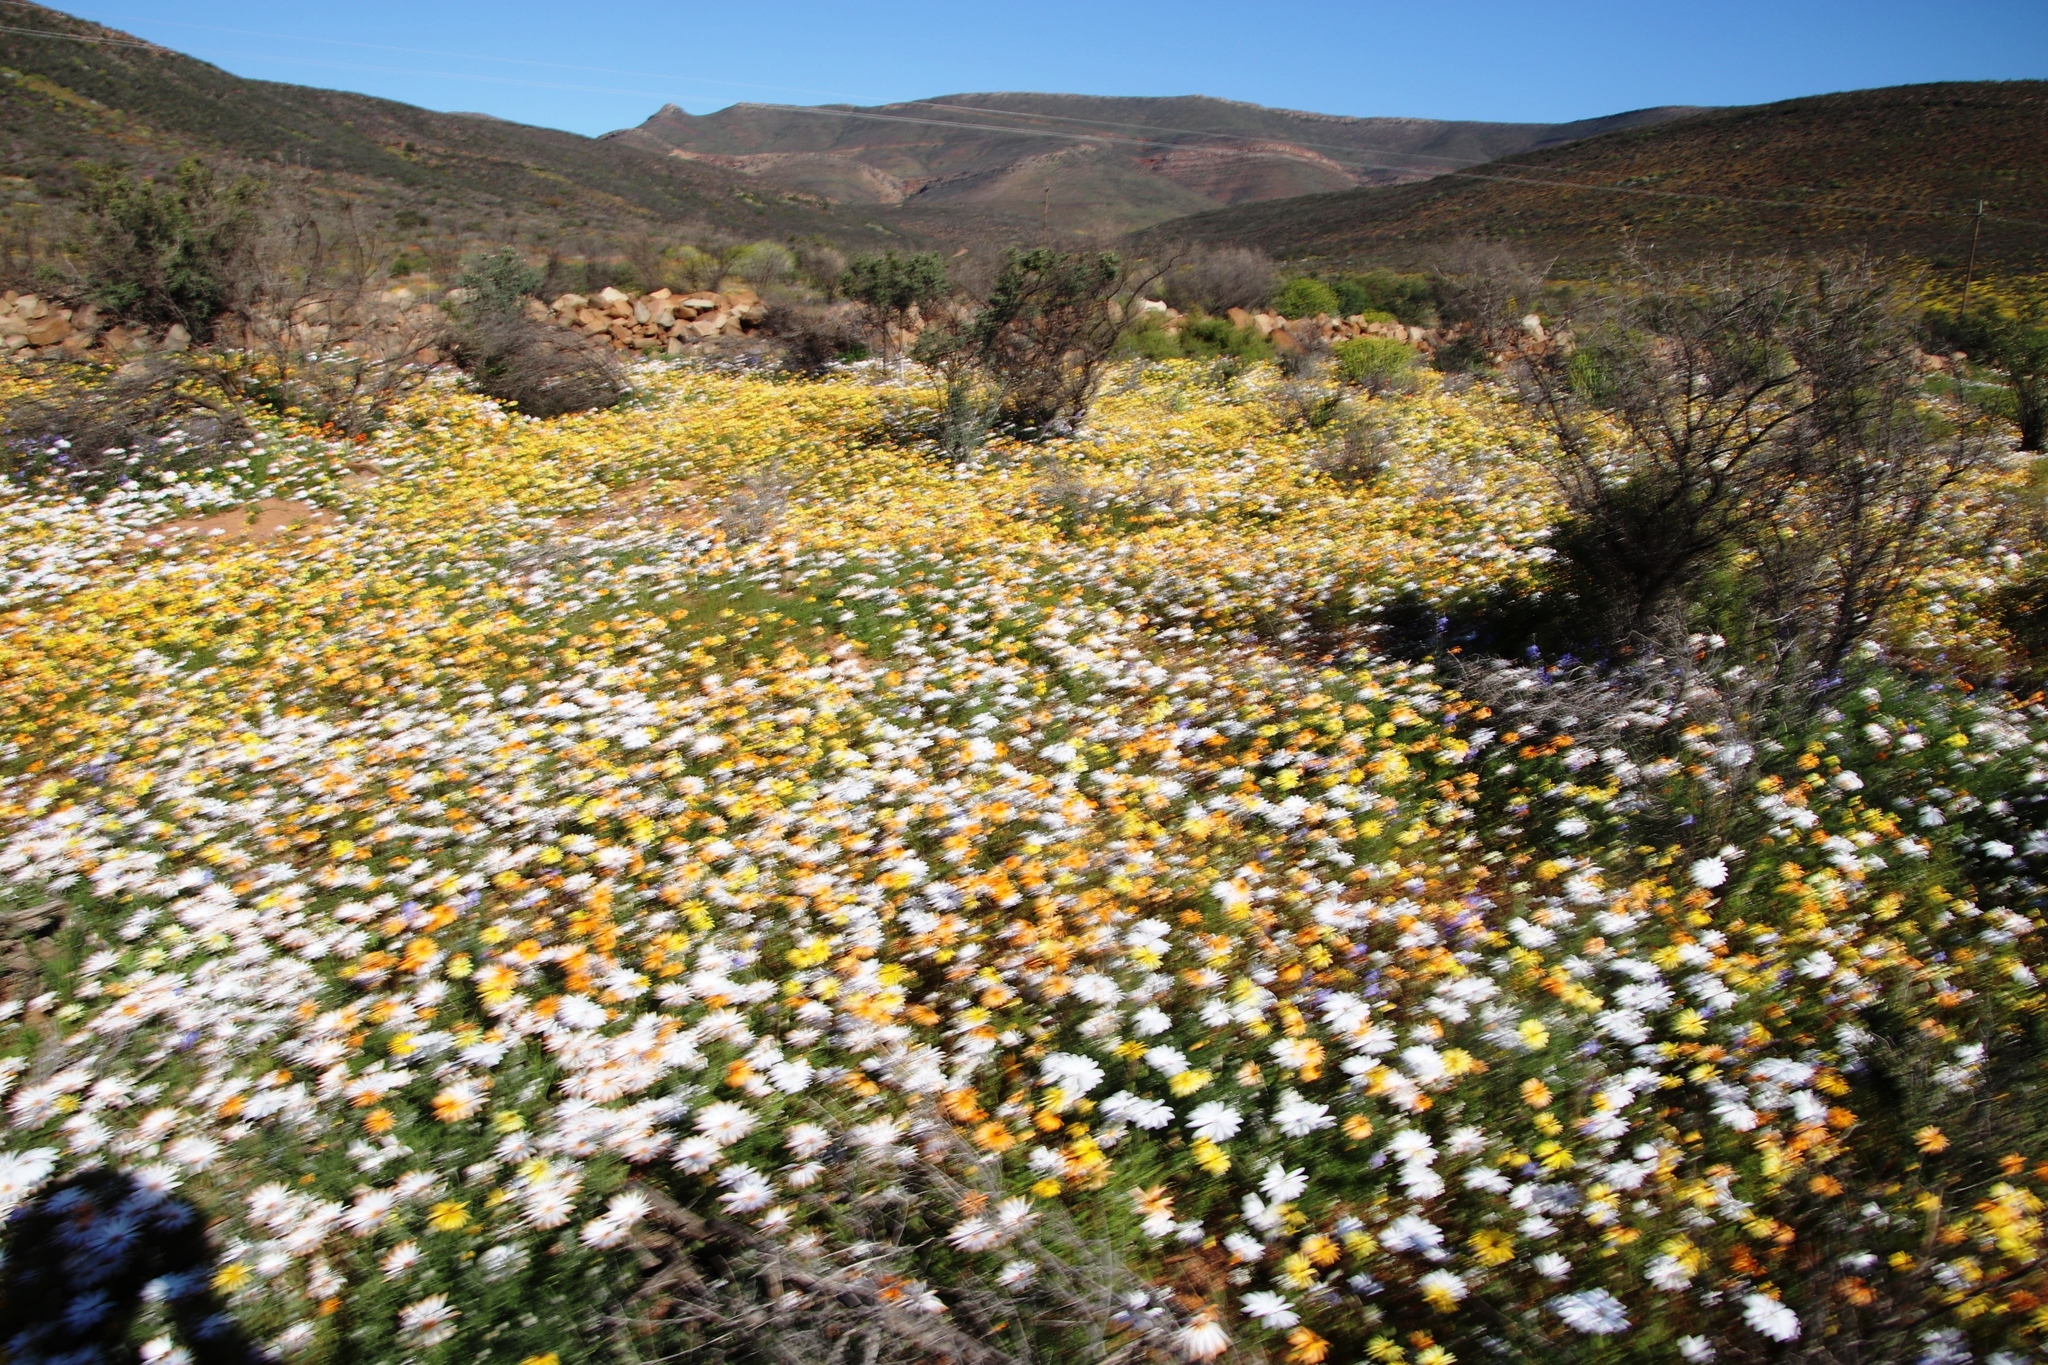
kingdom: Plantae
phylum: Tracheophyta
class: Magnoliopsida
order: Asterales
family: Asteraceae
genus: Dimorphotheca
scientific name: Dimorphotheca pluvialis
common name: Weather prophet
